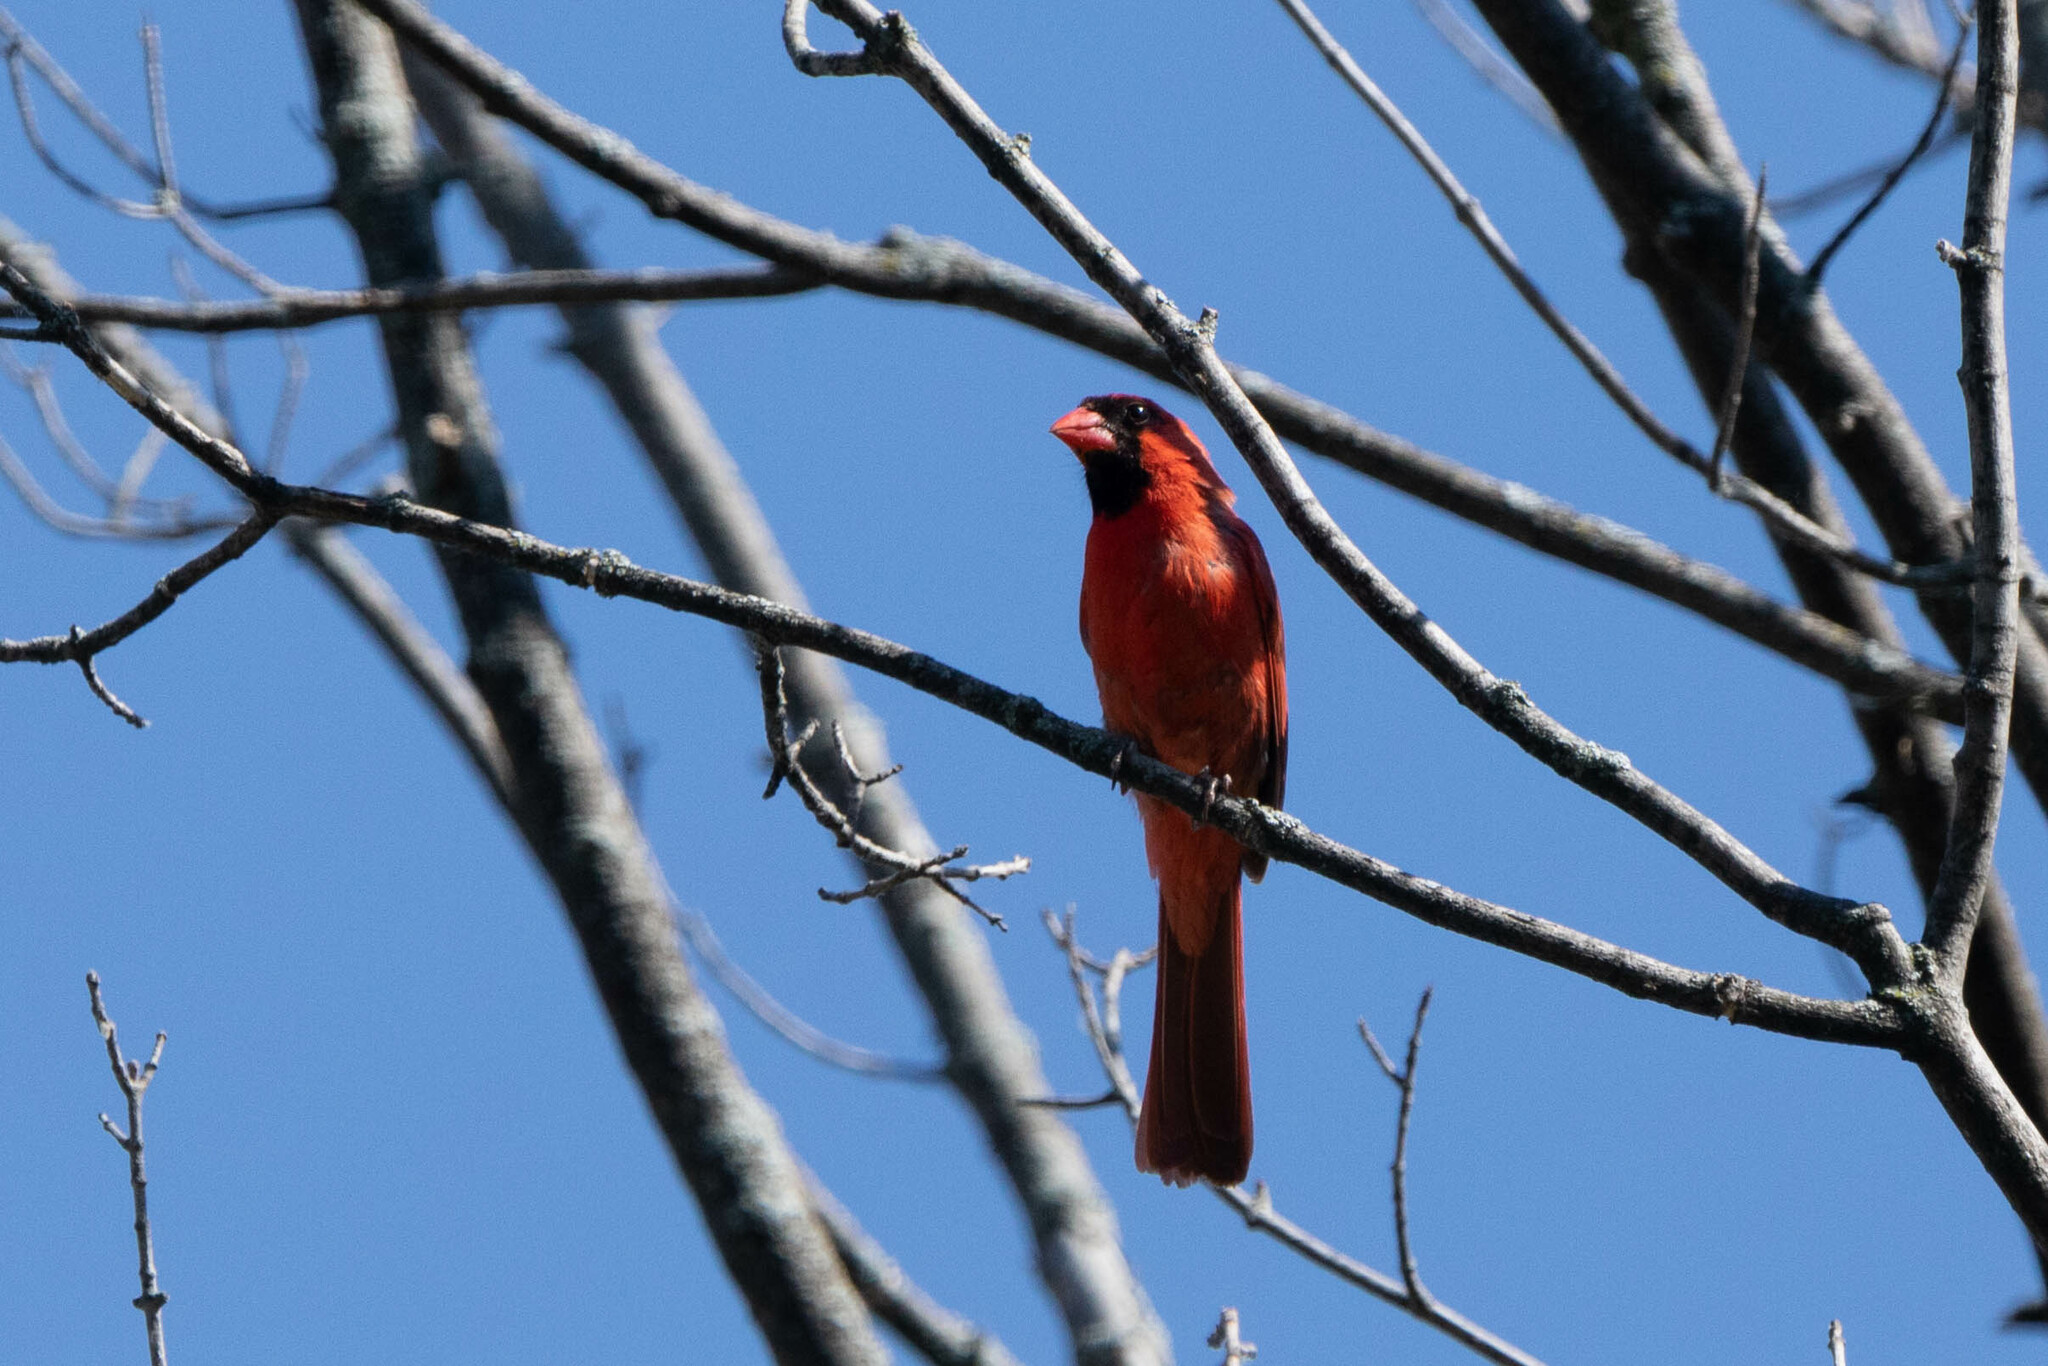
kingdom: Animalia
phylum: Chordata
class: Aves
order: Passeriformes
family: Cardinalidae
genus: Cardinalis
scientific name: Cardinalis cardinalis
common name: Northern cardinal
